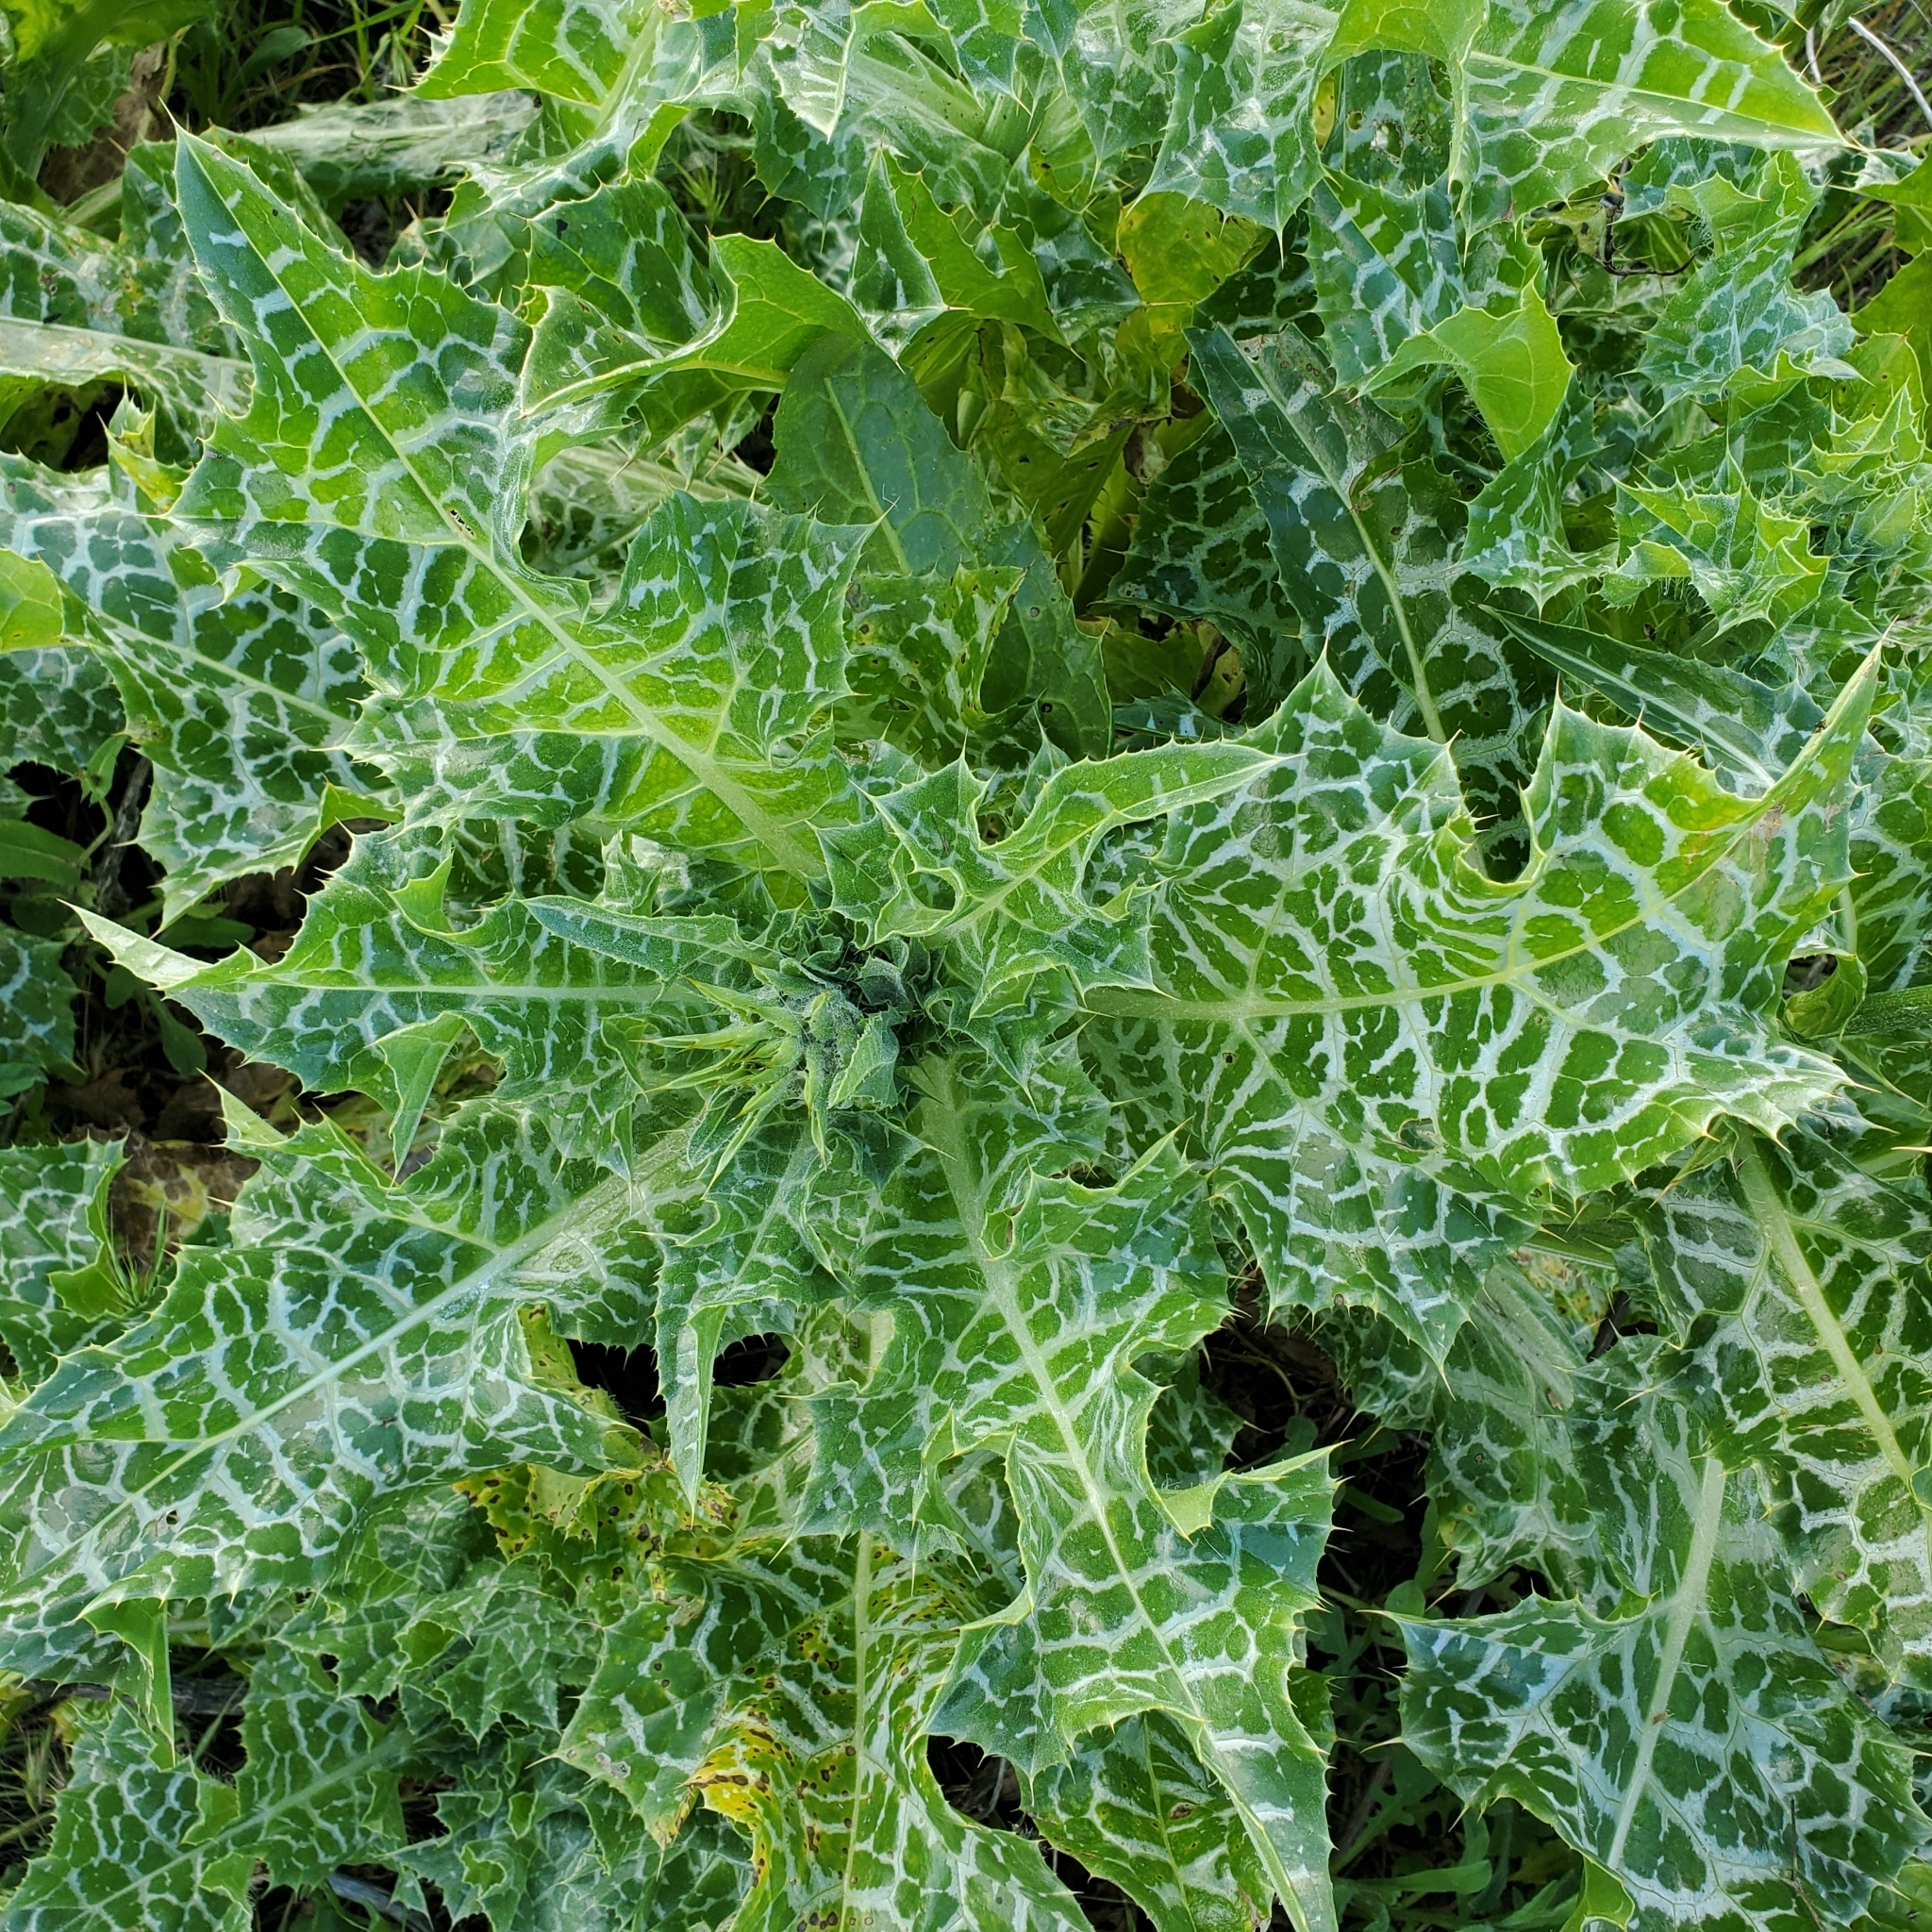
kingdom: Plantae
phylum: Tracheophyta
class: Magnoliopsida
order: Asterales
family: Asteraceae
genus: Silybum
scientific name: Silybum marianum
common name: Milk thistle
